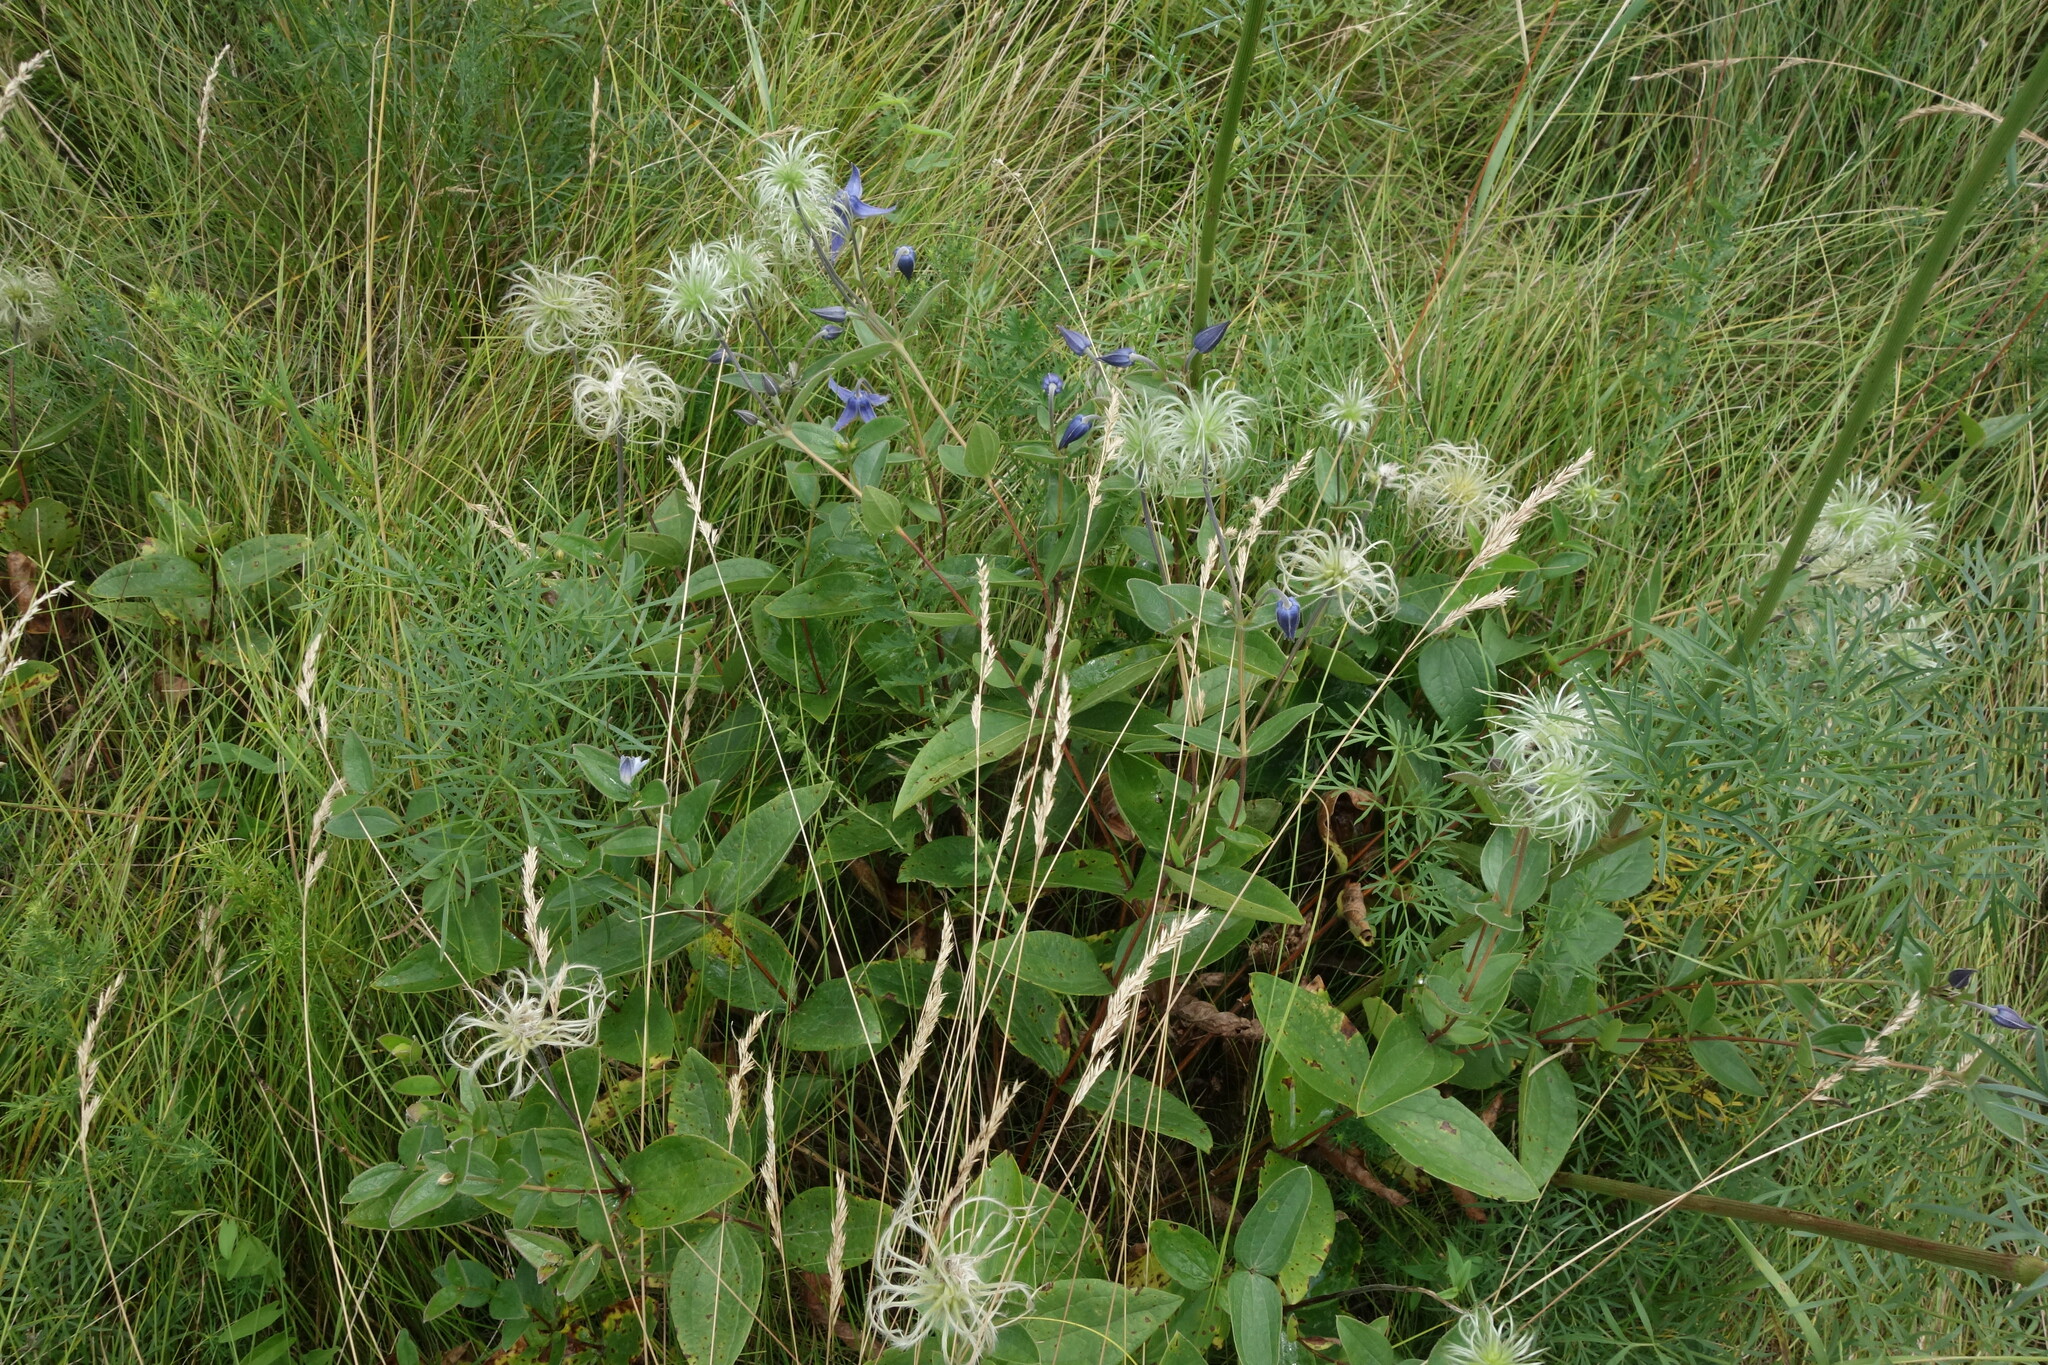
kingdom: Plantae
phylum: Tracheophyta
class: Magnoliopsida
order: Ranunculales
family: Ranunculaceae
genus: Clematis
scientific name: Clematis integrifolia
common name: Solitary clematis
